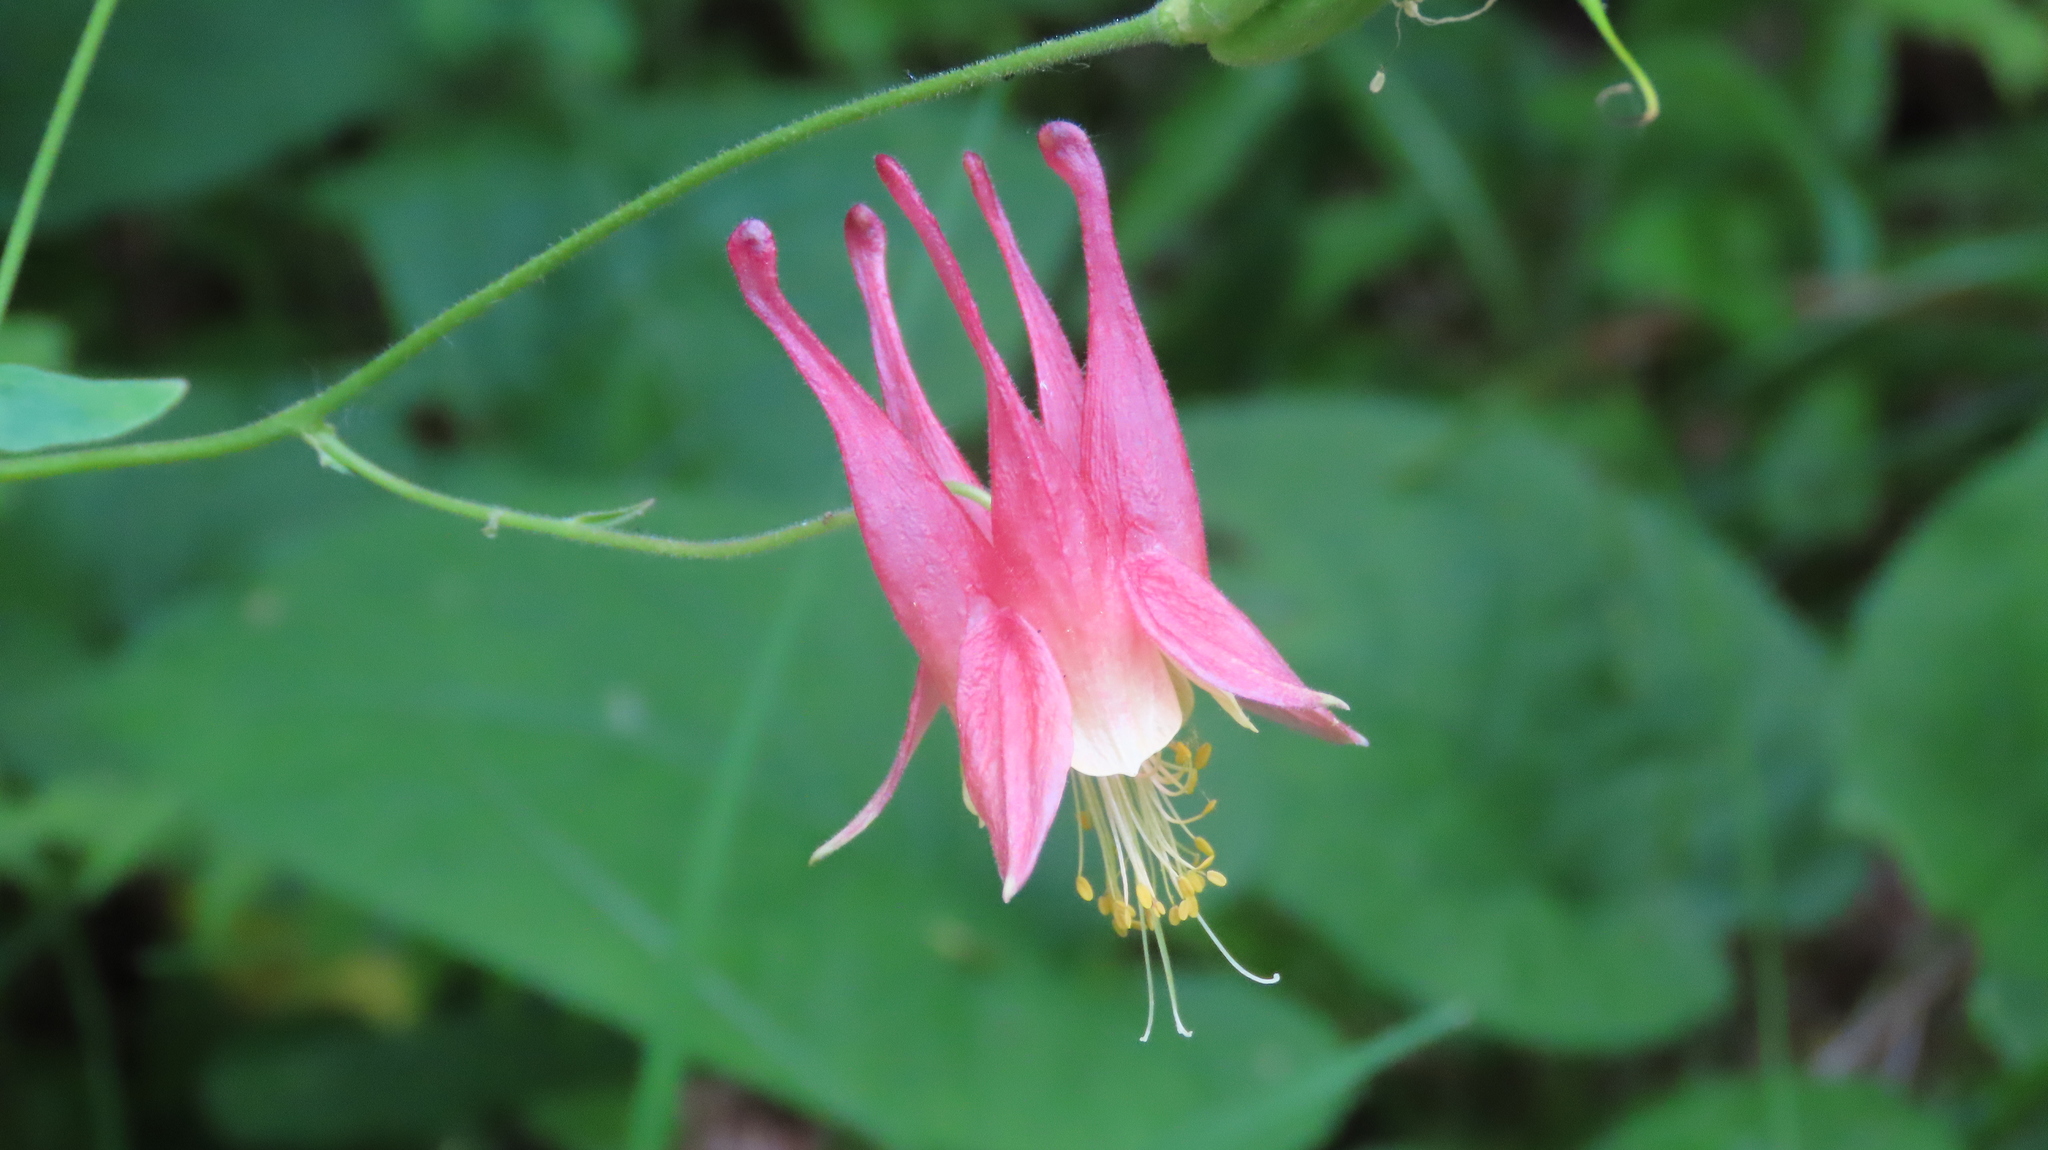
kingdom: Plantae
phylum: Tracheophyta
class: Magnoliopsida
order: Ranunculales
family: Ranunculaceae
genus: Aquilegia
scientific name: Aquilegia canadensis
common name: American columbine
